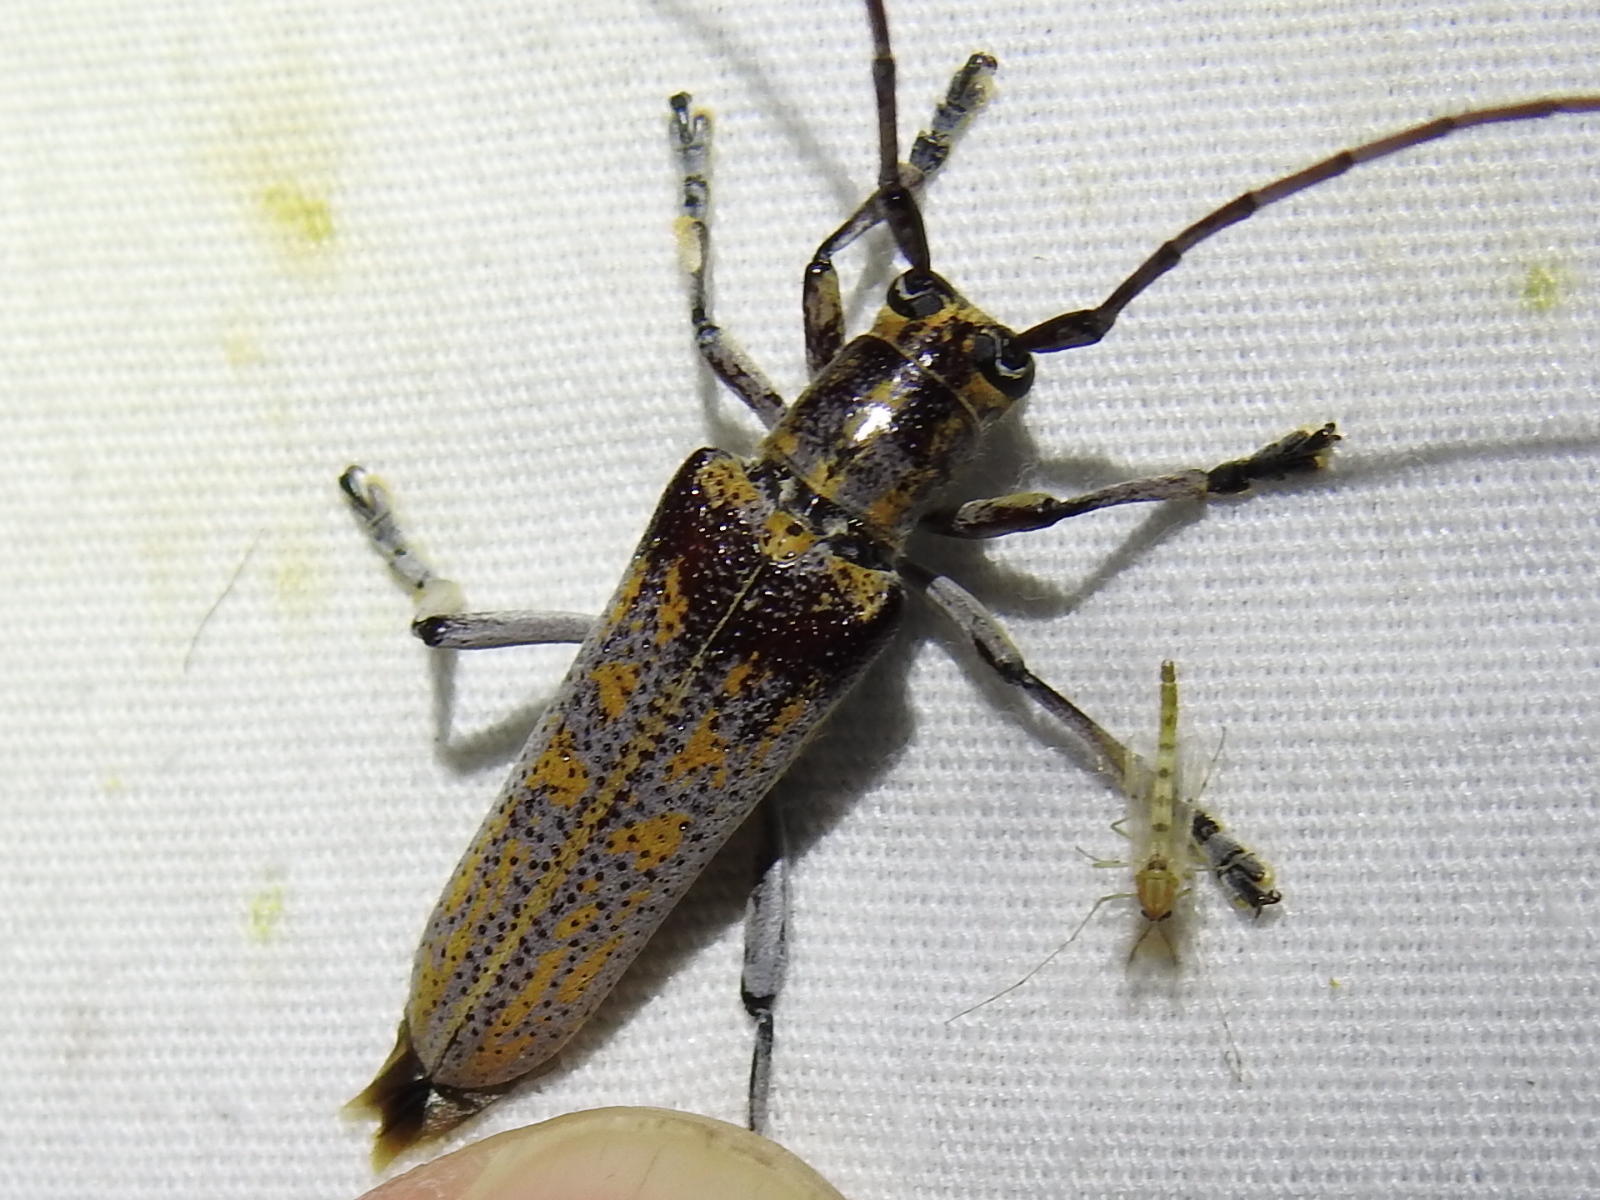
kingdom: Animalia
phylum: Arthropoda
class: Insecta
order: Coleoptera
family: Cerambycidae
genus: Saperda
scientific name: Saperda calcarata
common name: Poplar borer
